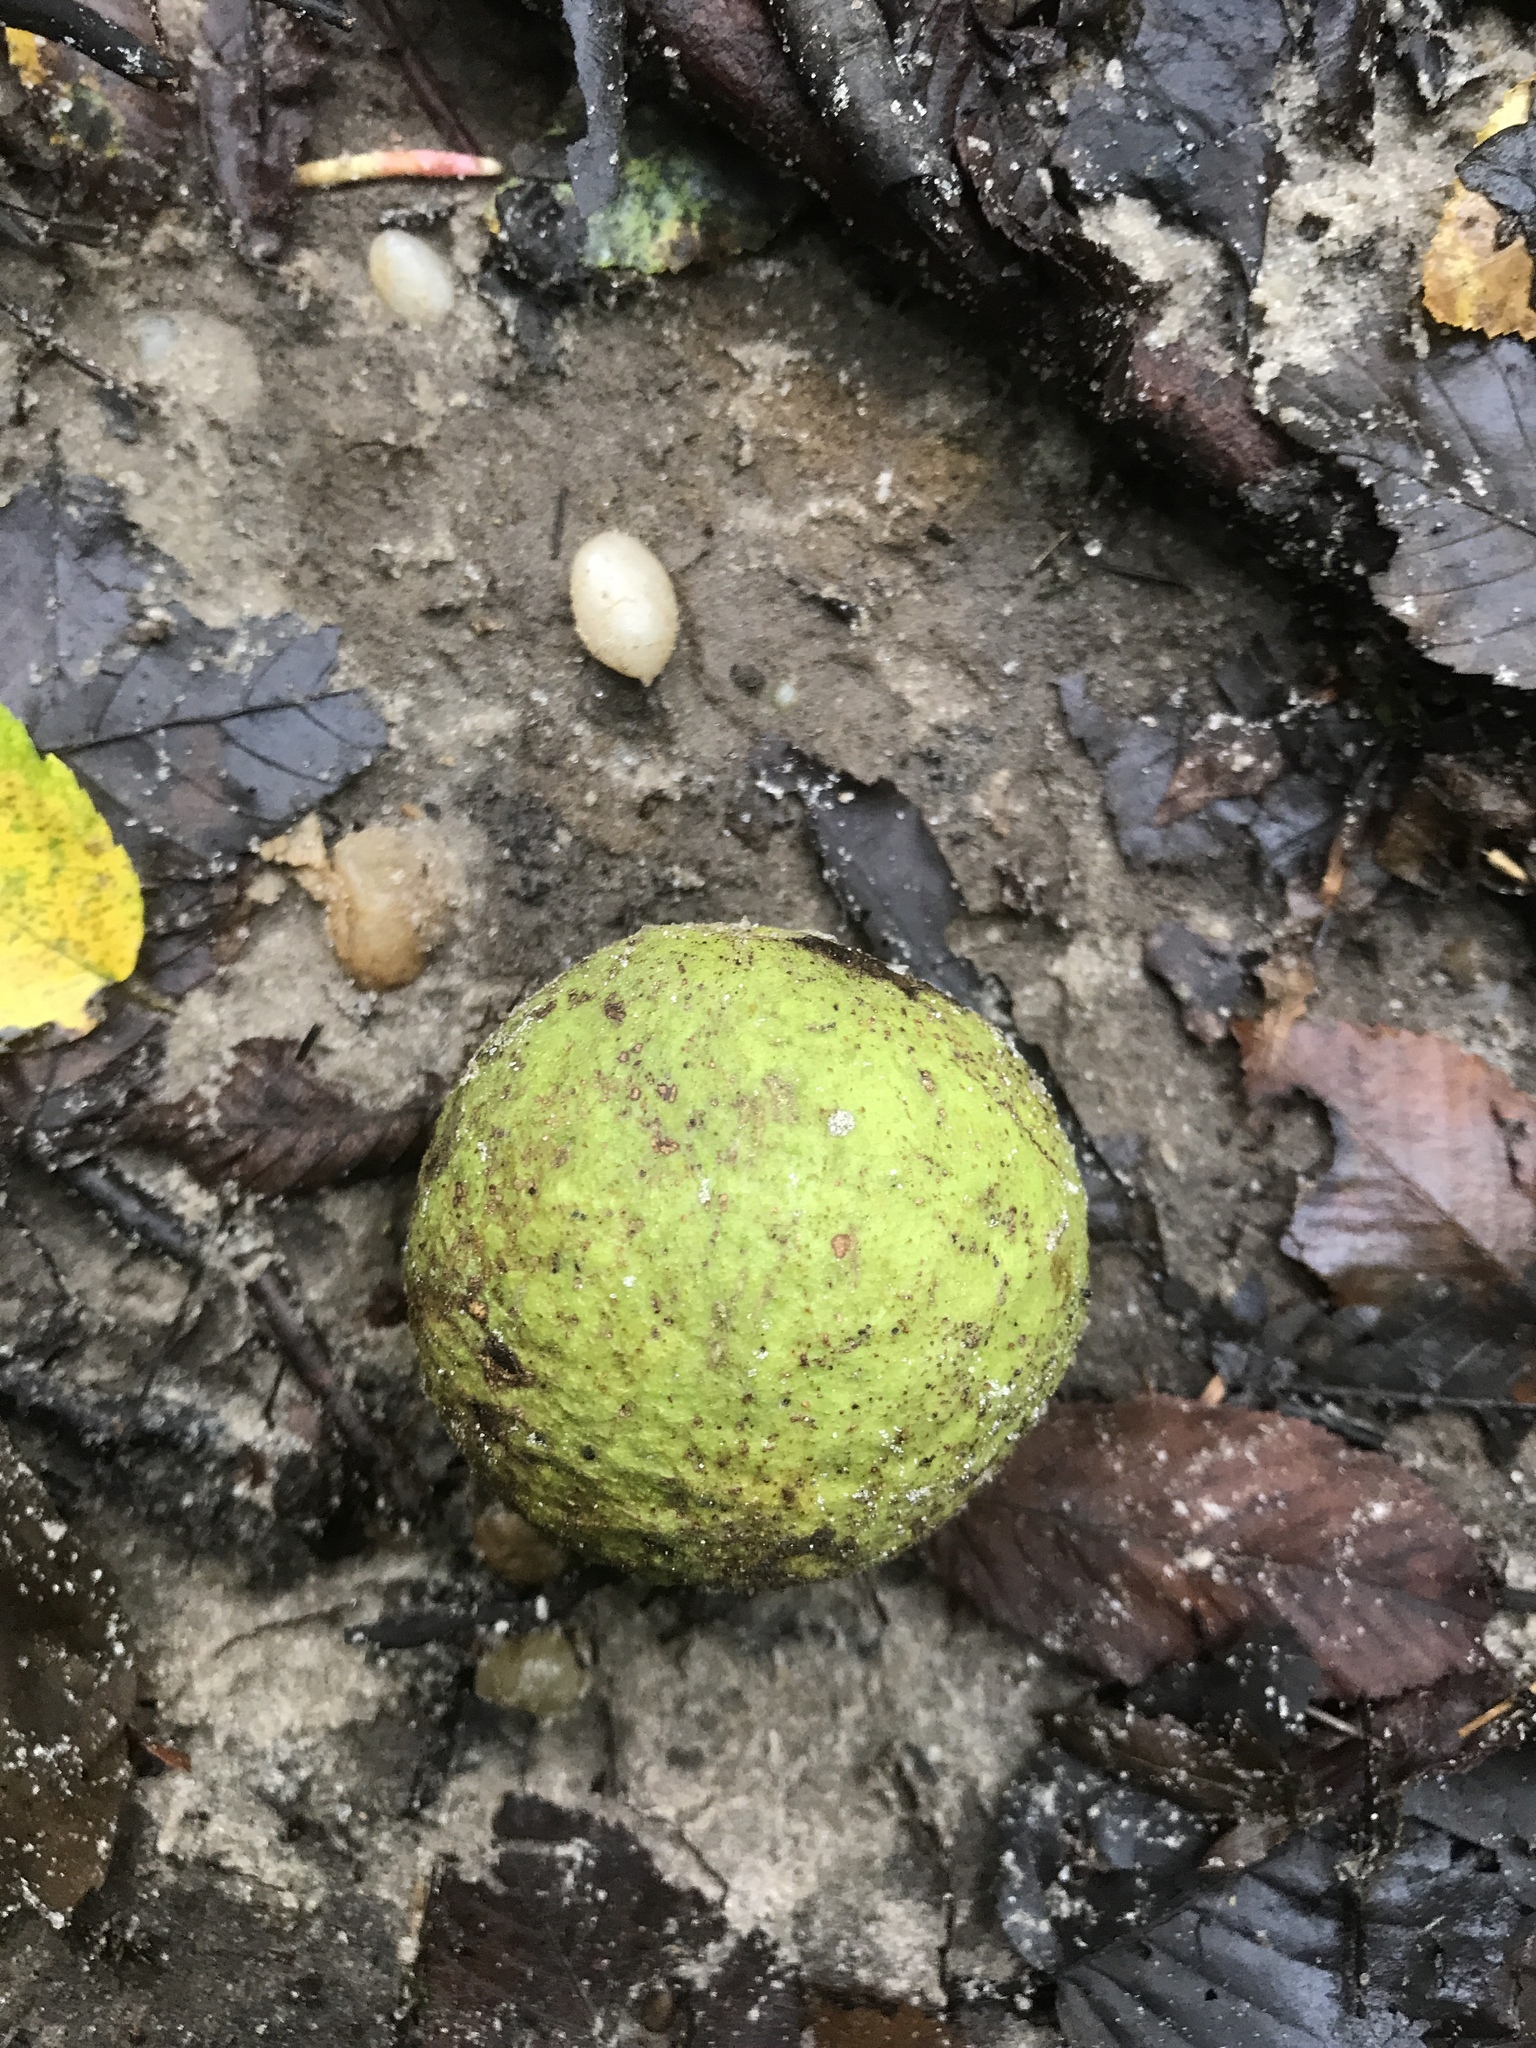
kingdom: Plantae
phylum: Tracheophyta
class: Magnoliopsida
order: Fagales
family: Juglandaceae
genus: Juglans
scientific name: Juglans nigra
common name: Black walnut
